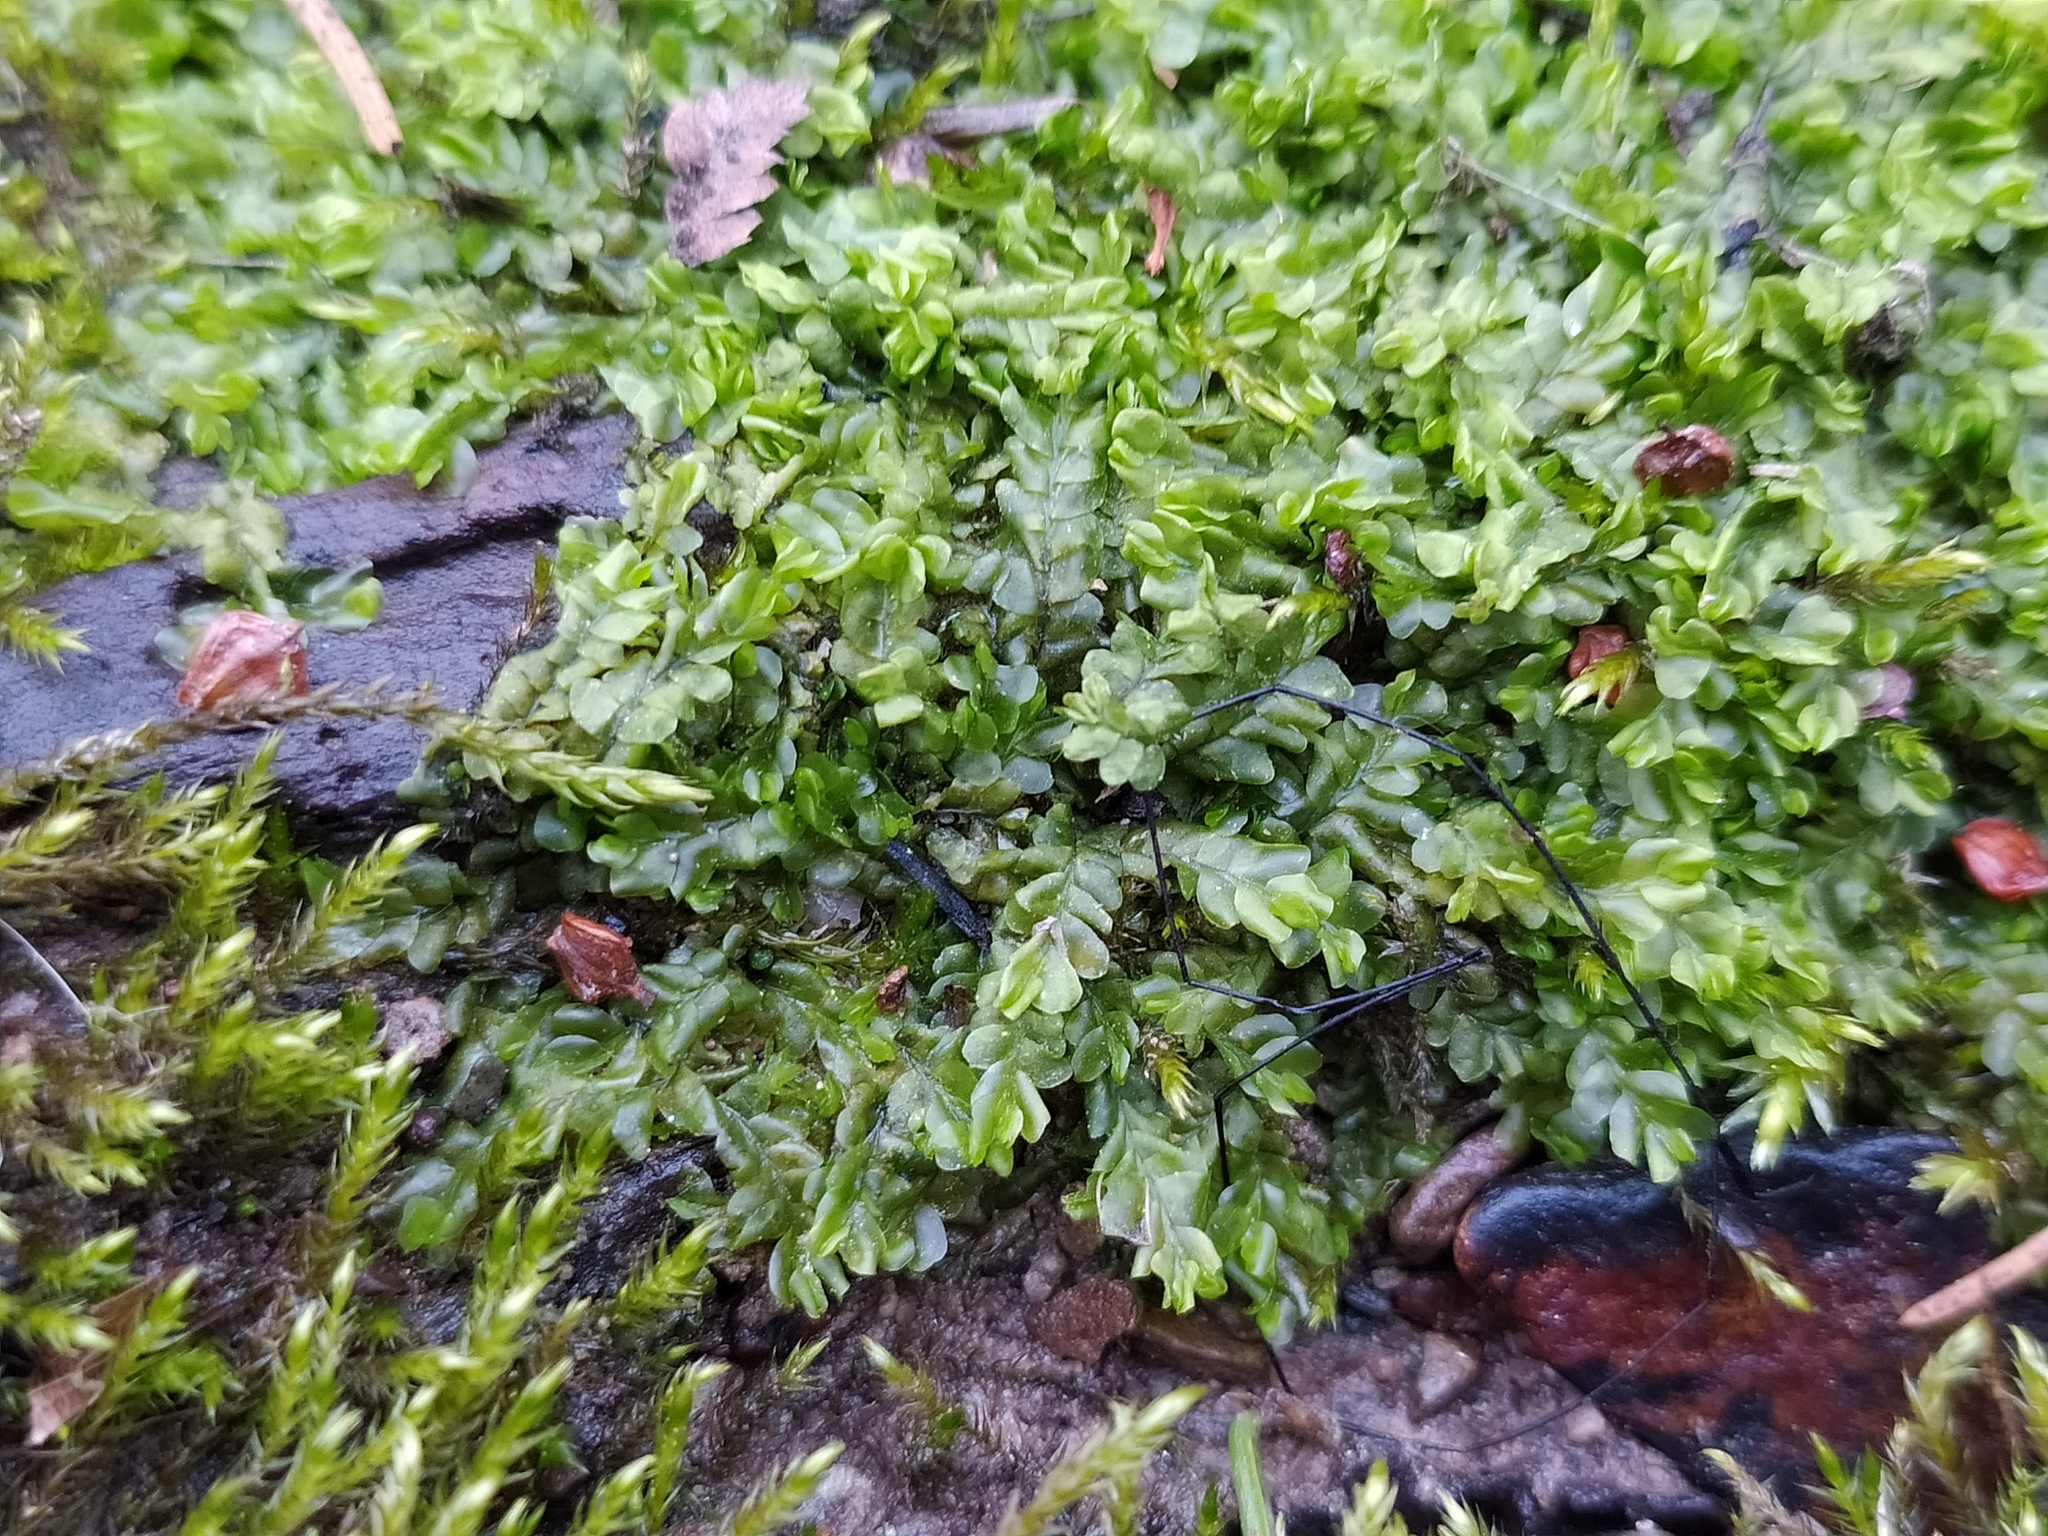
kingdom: Plantae
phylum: Marchantiophyta
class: Jungermanniopsida
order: Jungermanniales
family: Lophocoleaceae
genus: Chiloscyphus
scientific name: Chiloscyphus polyanthos
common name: Square-leaved crestwort
